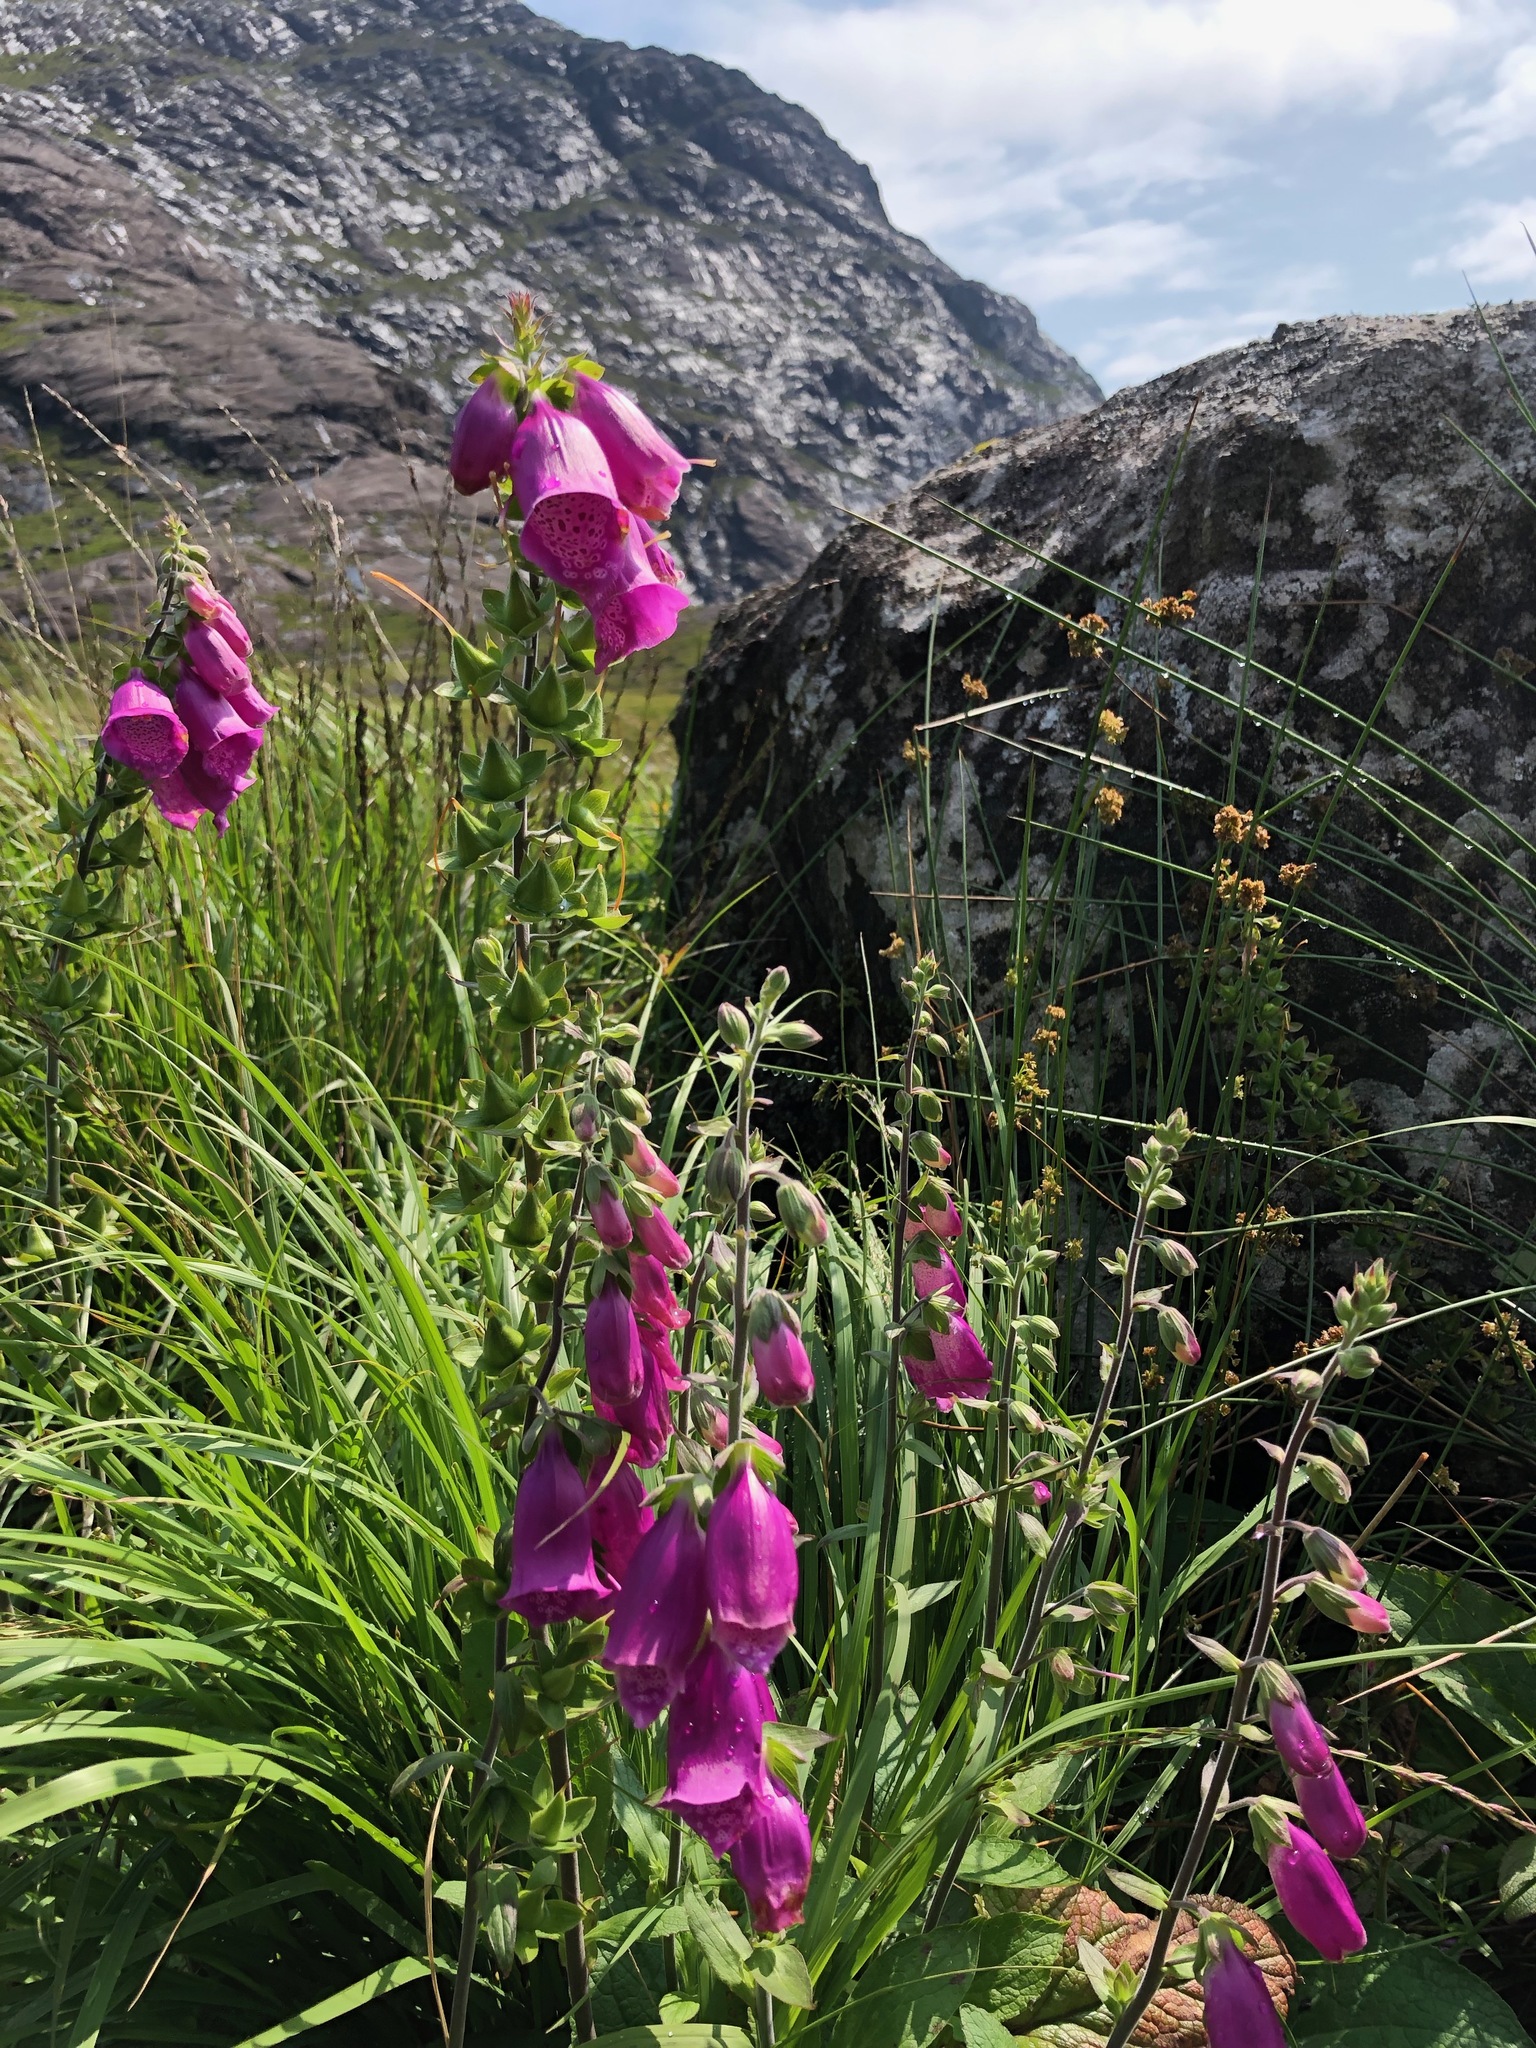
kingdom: Plantae
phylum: Tracheophyta
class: Magnoliopsida
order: Lamiales
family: Plantaginaceae
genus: Digitalis
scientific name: Digitalis purpurea
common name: Foxglove
